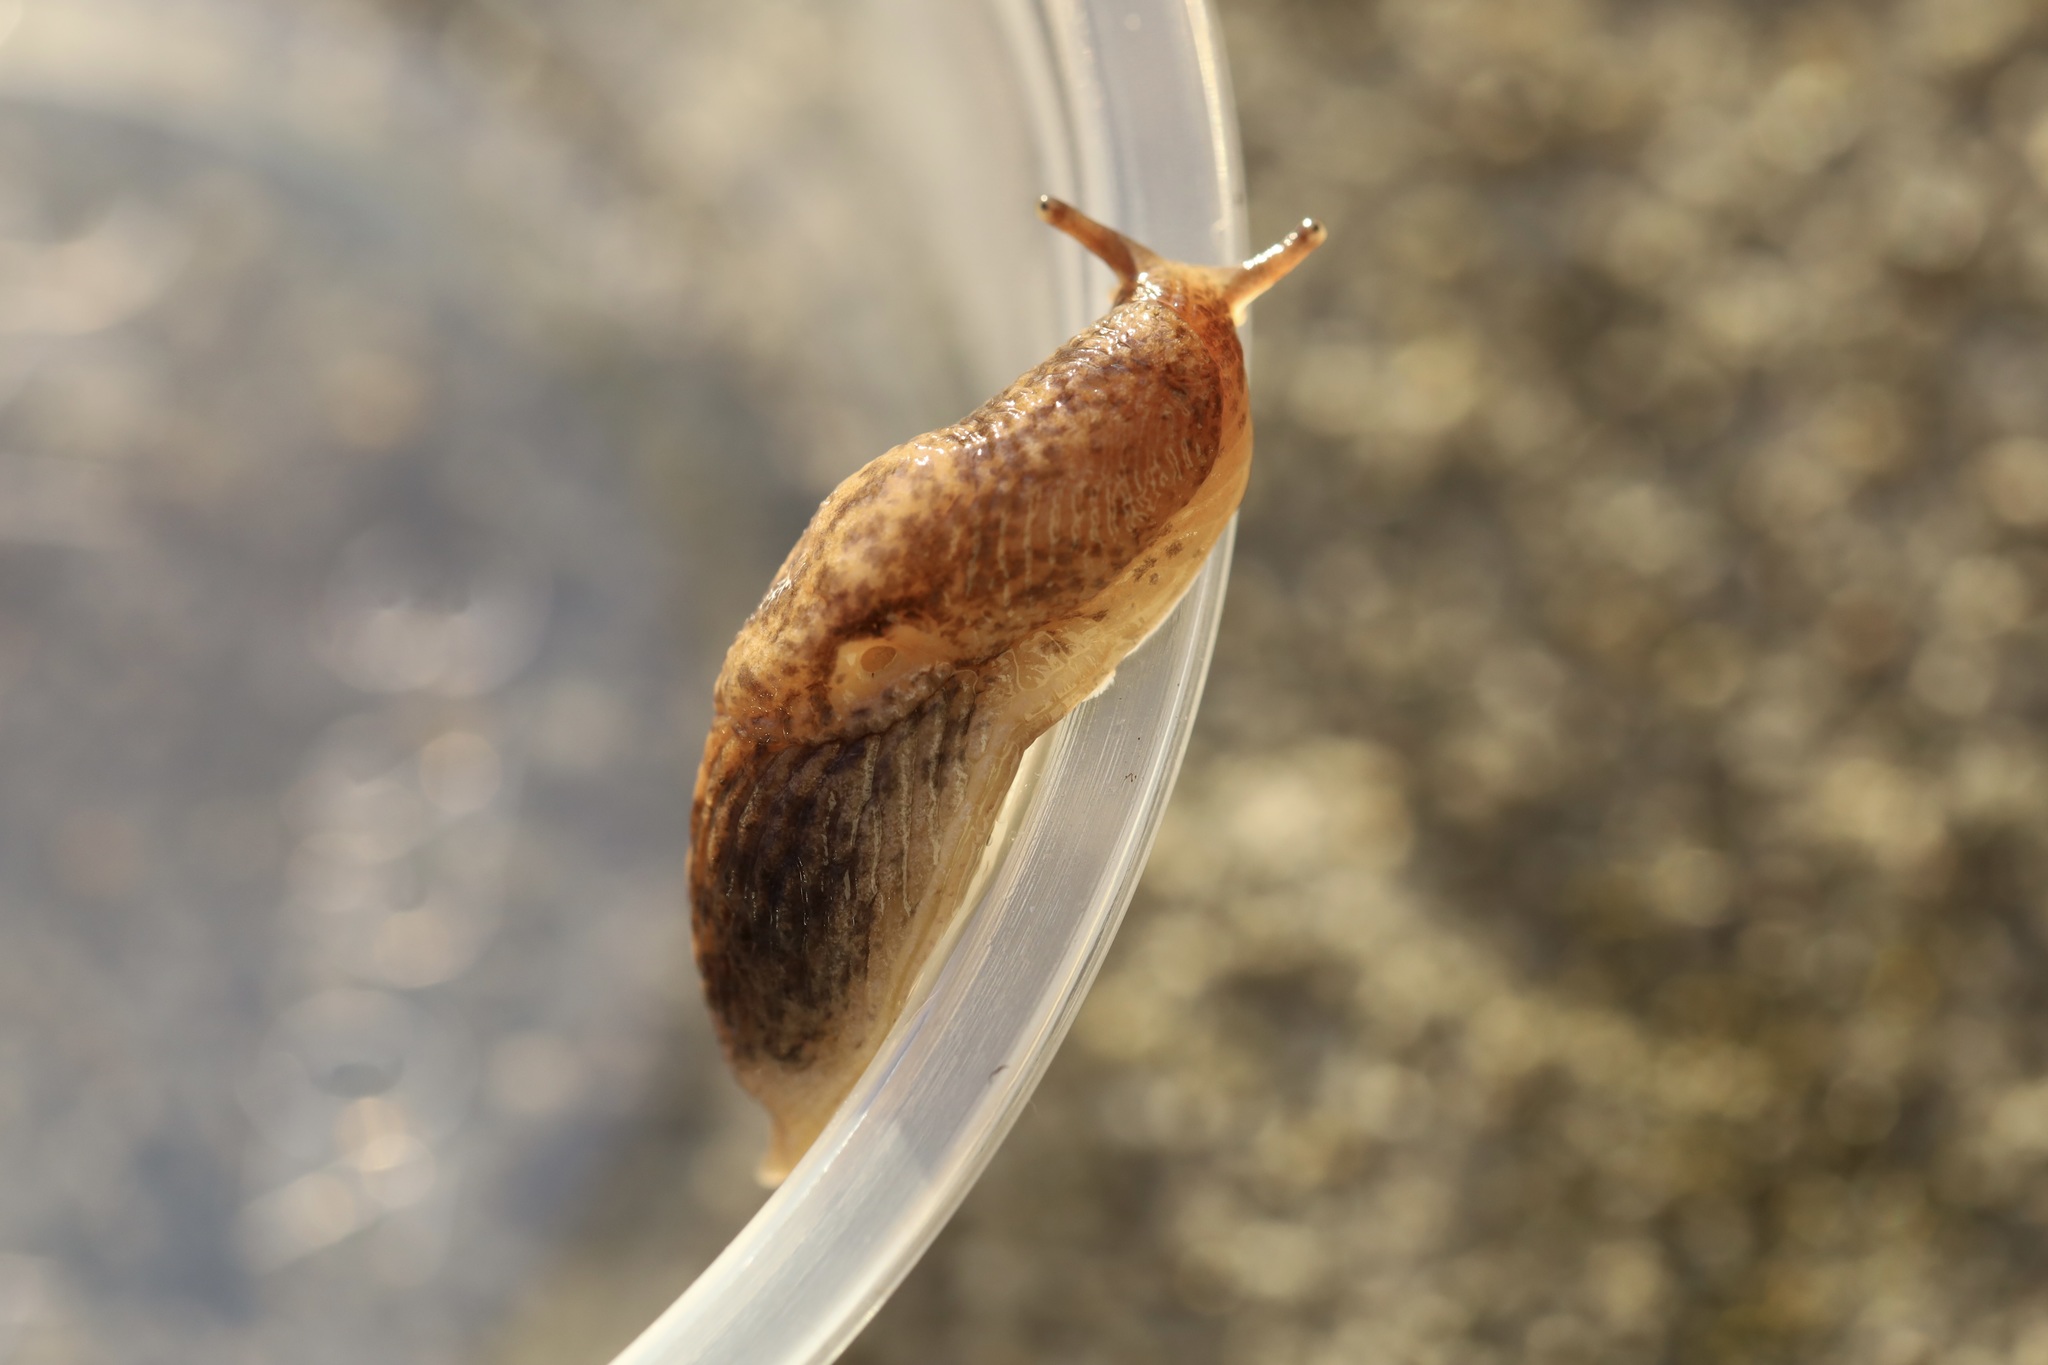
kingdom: Animalia
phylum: Mollusca
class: Gastropoda
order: Stylommatophora
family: Agriolimacidae
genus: Deroceras
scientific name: Deroceras reticulatum
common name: Gray field slug
